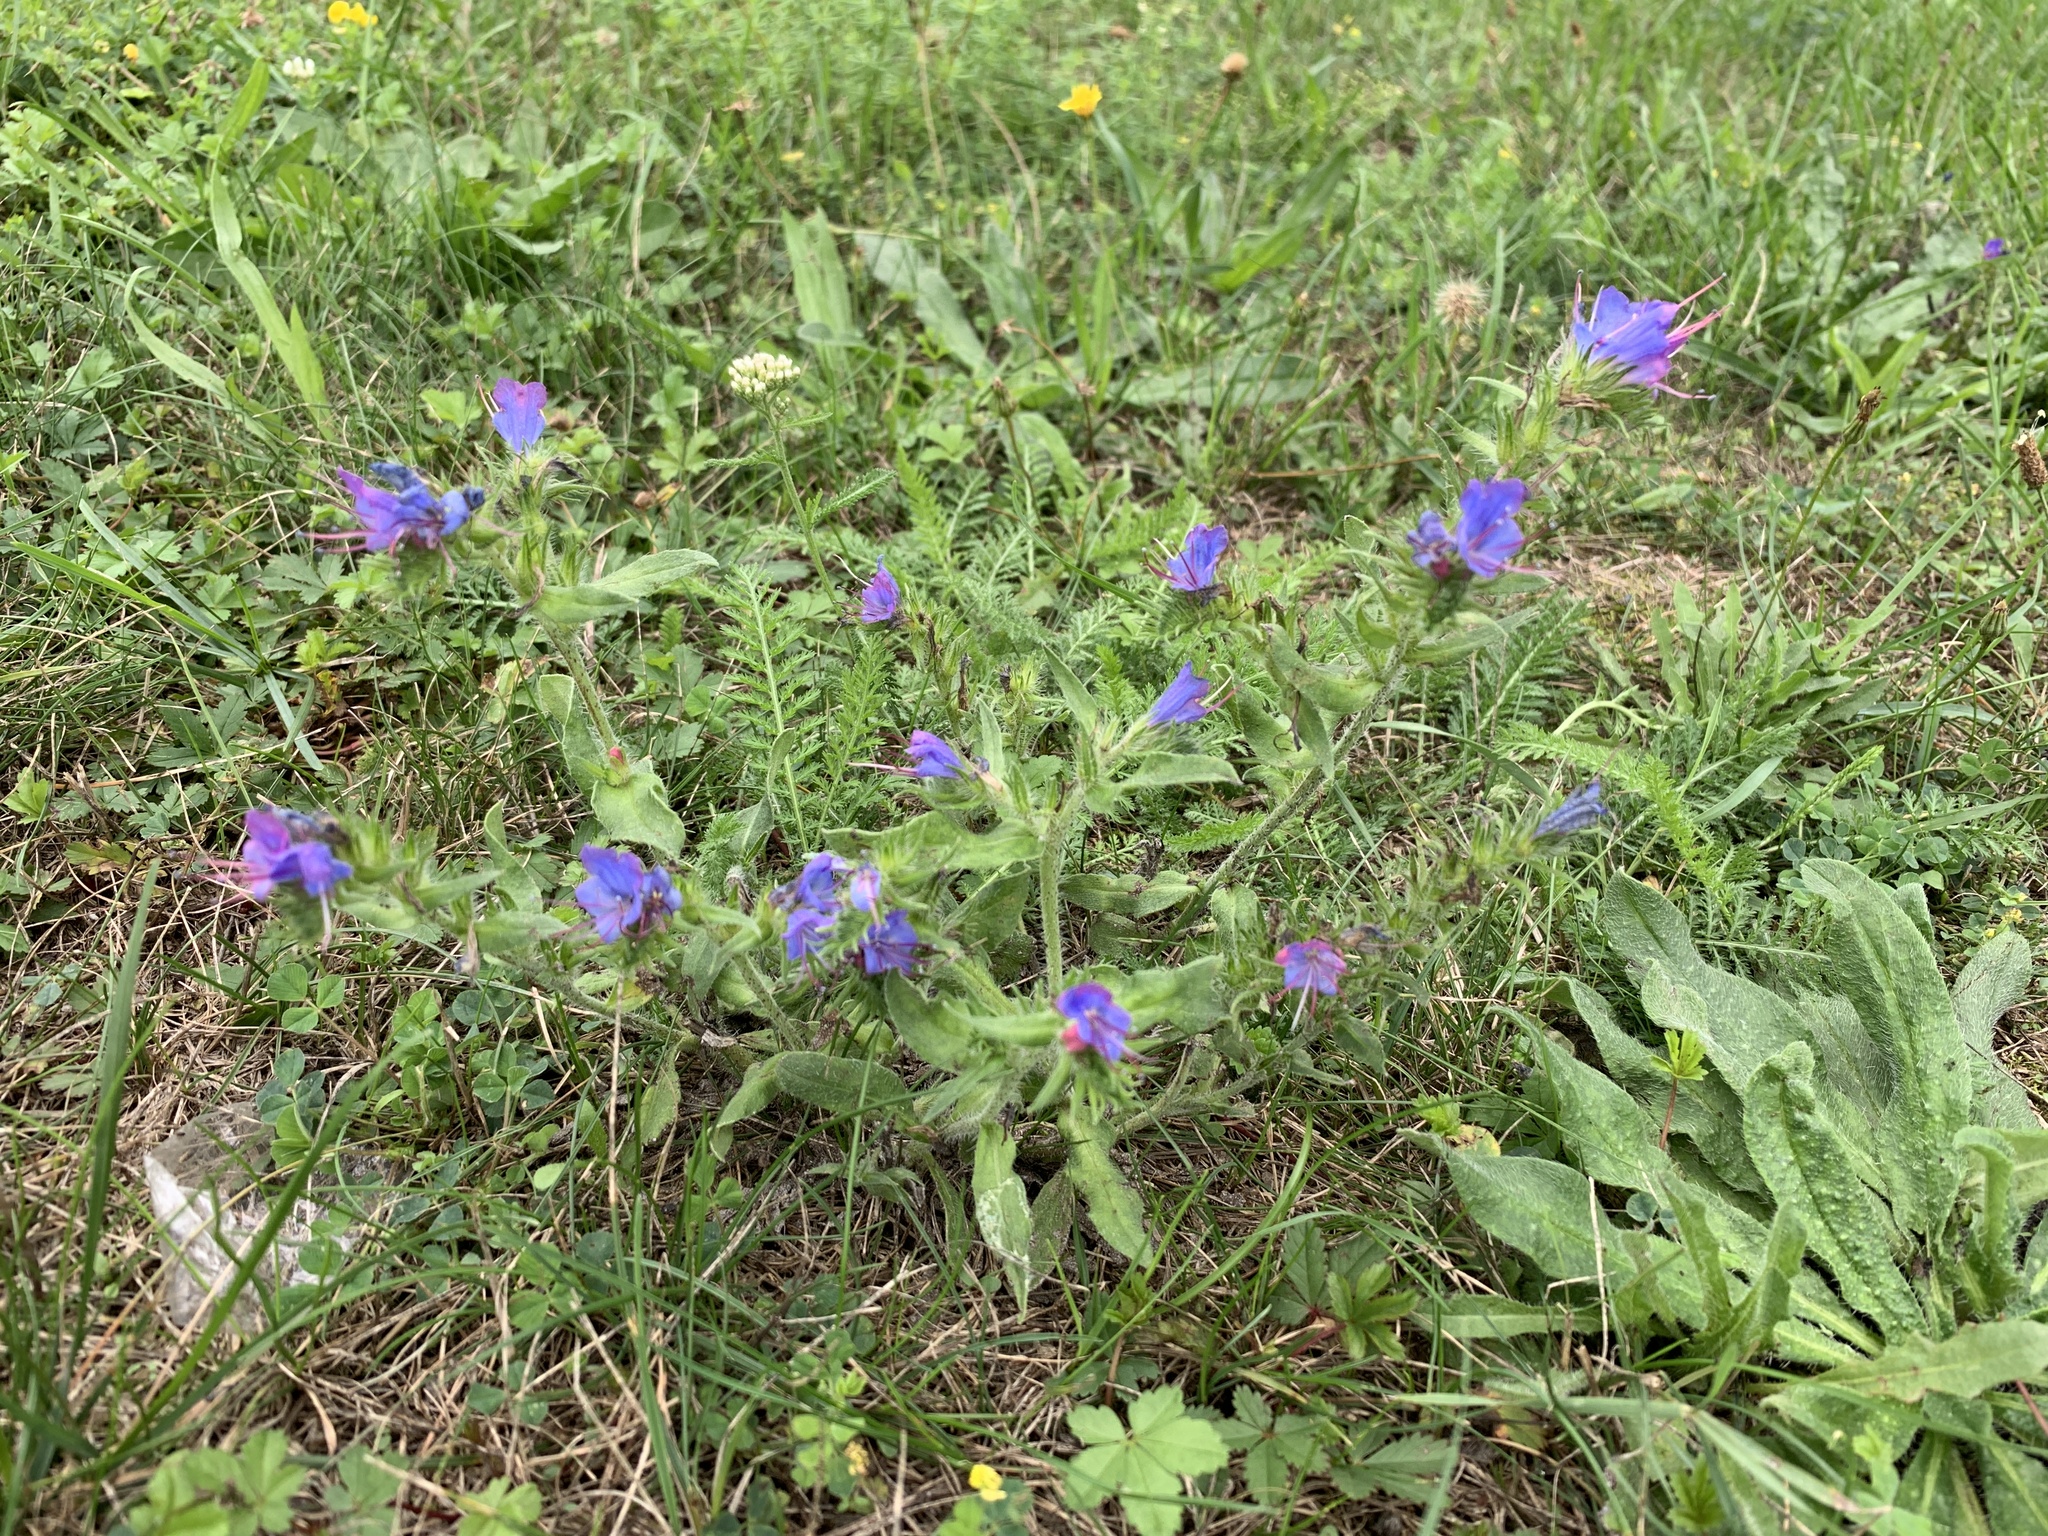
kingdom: Plantae
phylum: Tracheophyta
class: Magnoliopsida
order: Boraginales
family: Boraginaceae
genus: Echium
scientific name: Echium vulgare
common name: Common viper's bugloss
